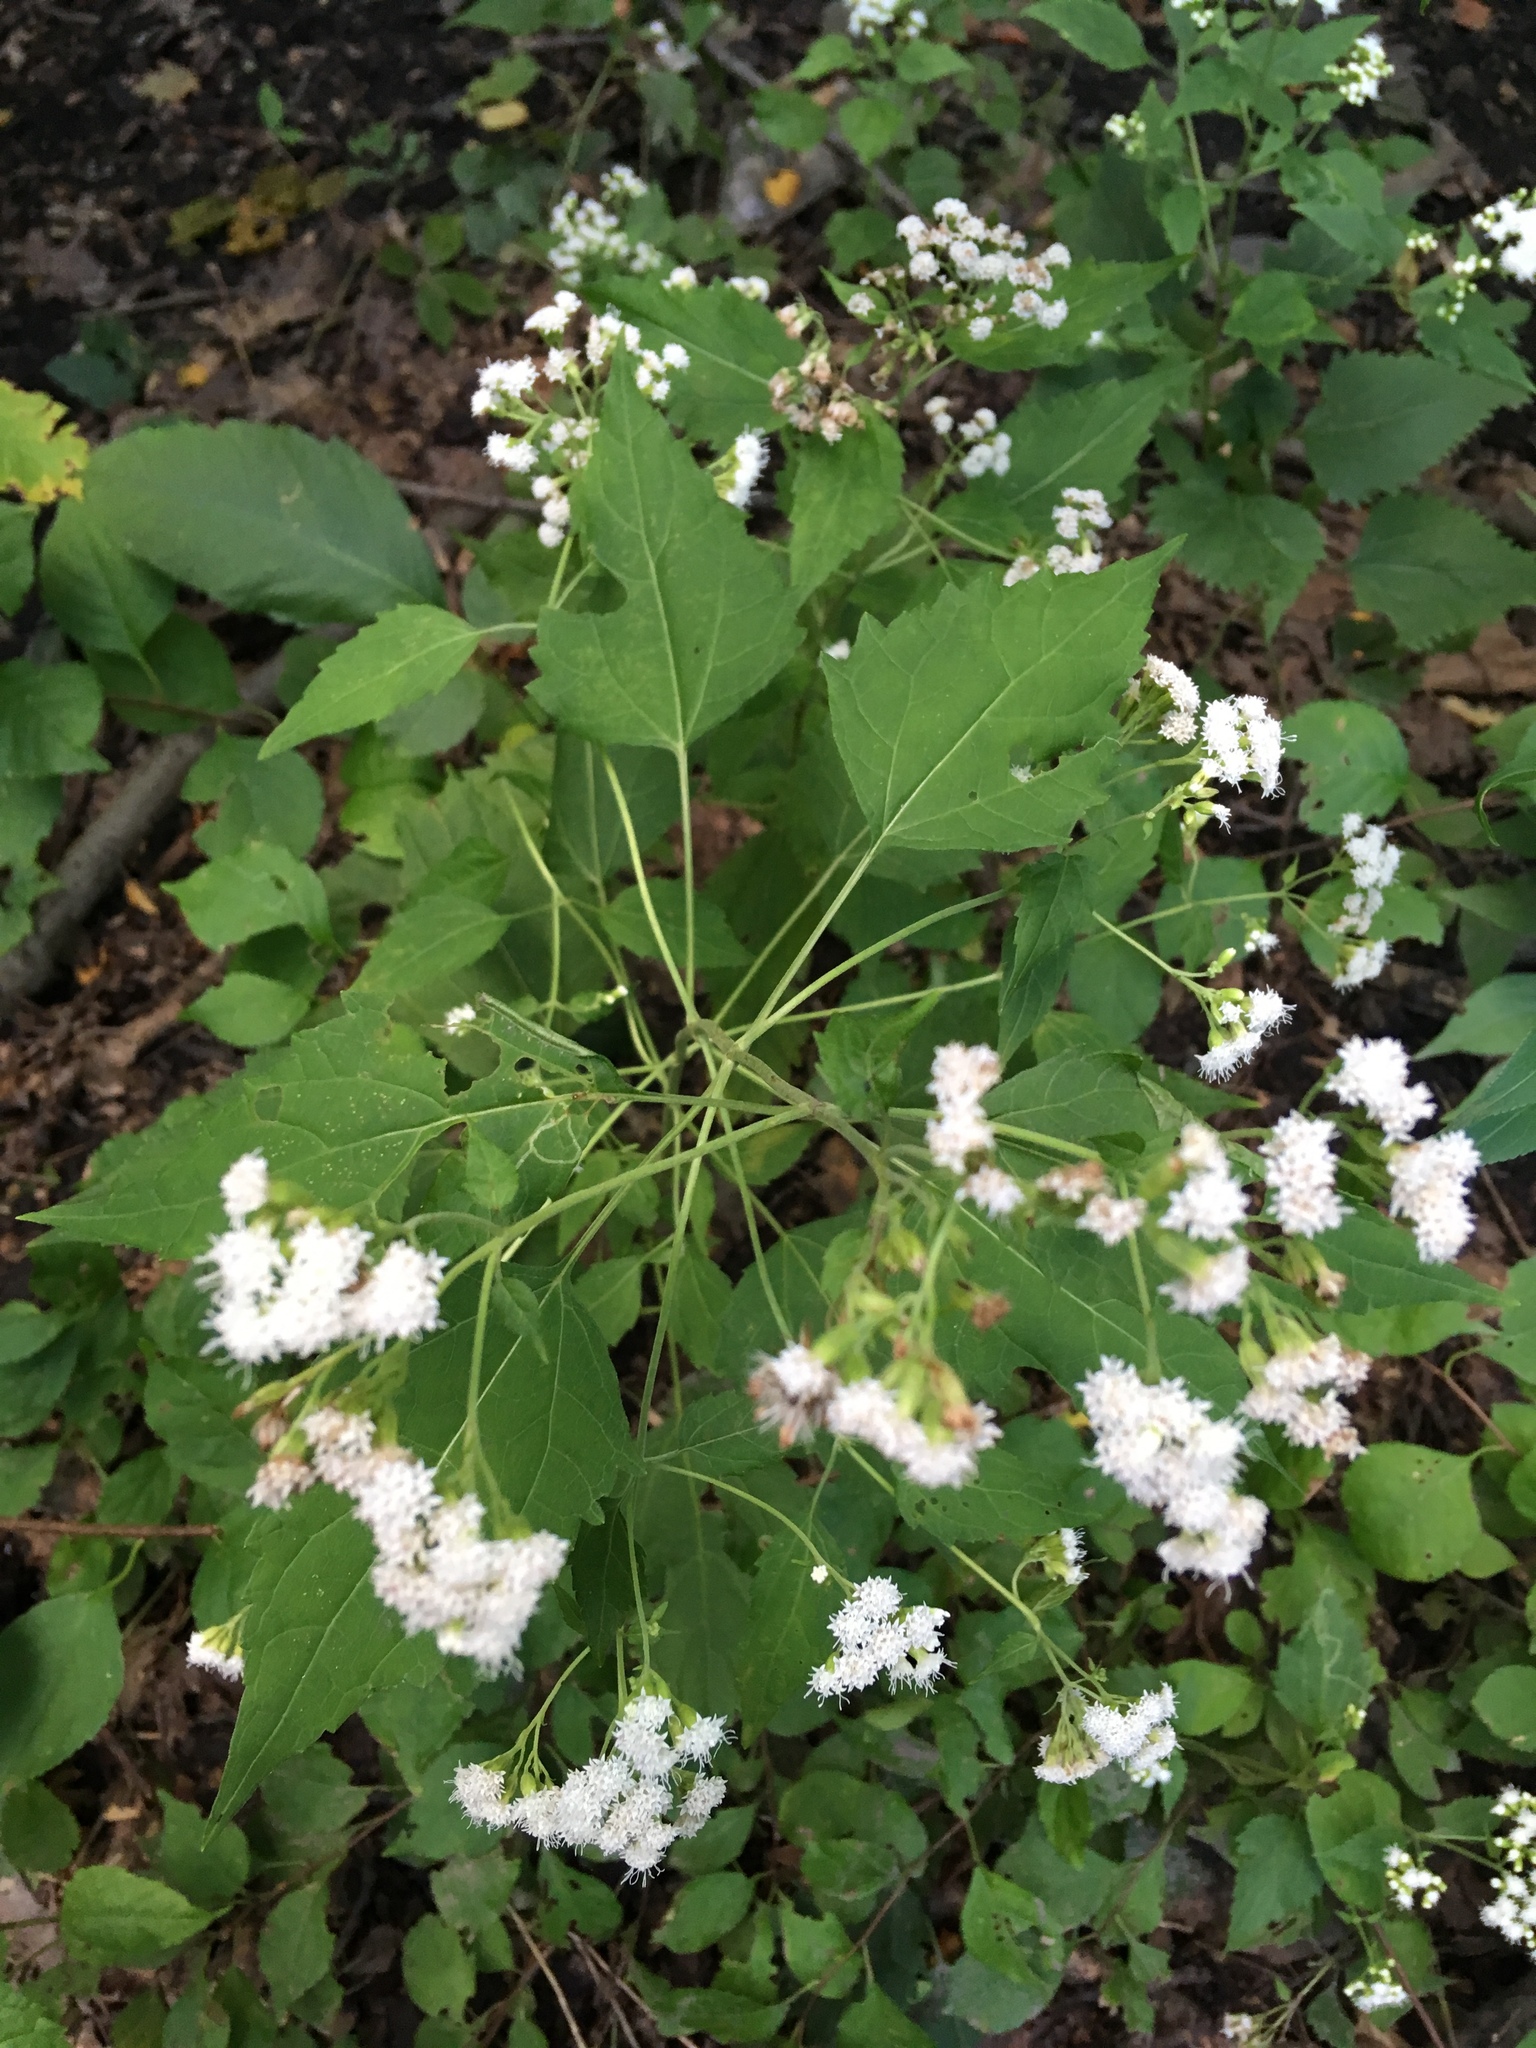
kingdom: Plantae
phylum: Tracheophyta
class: Magnoliopsida
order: Asterales
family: Asteraceae
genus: Ageratina
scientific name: Ageratina altissima
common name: White snakeroot
